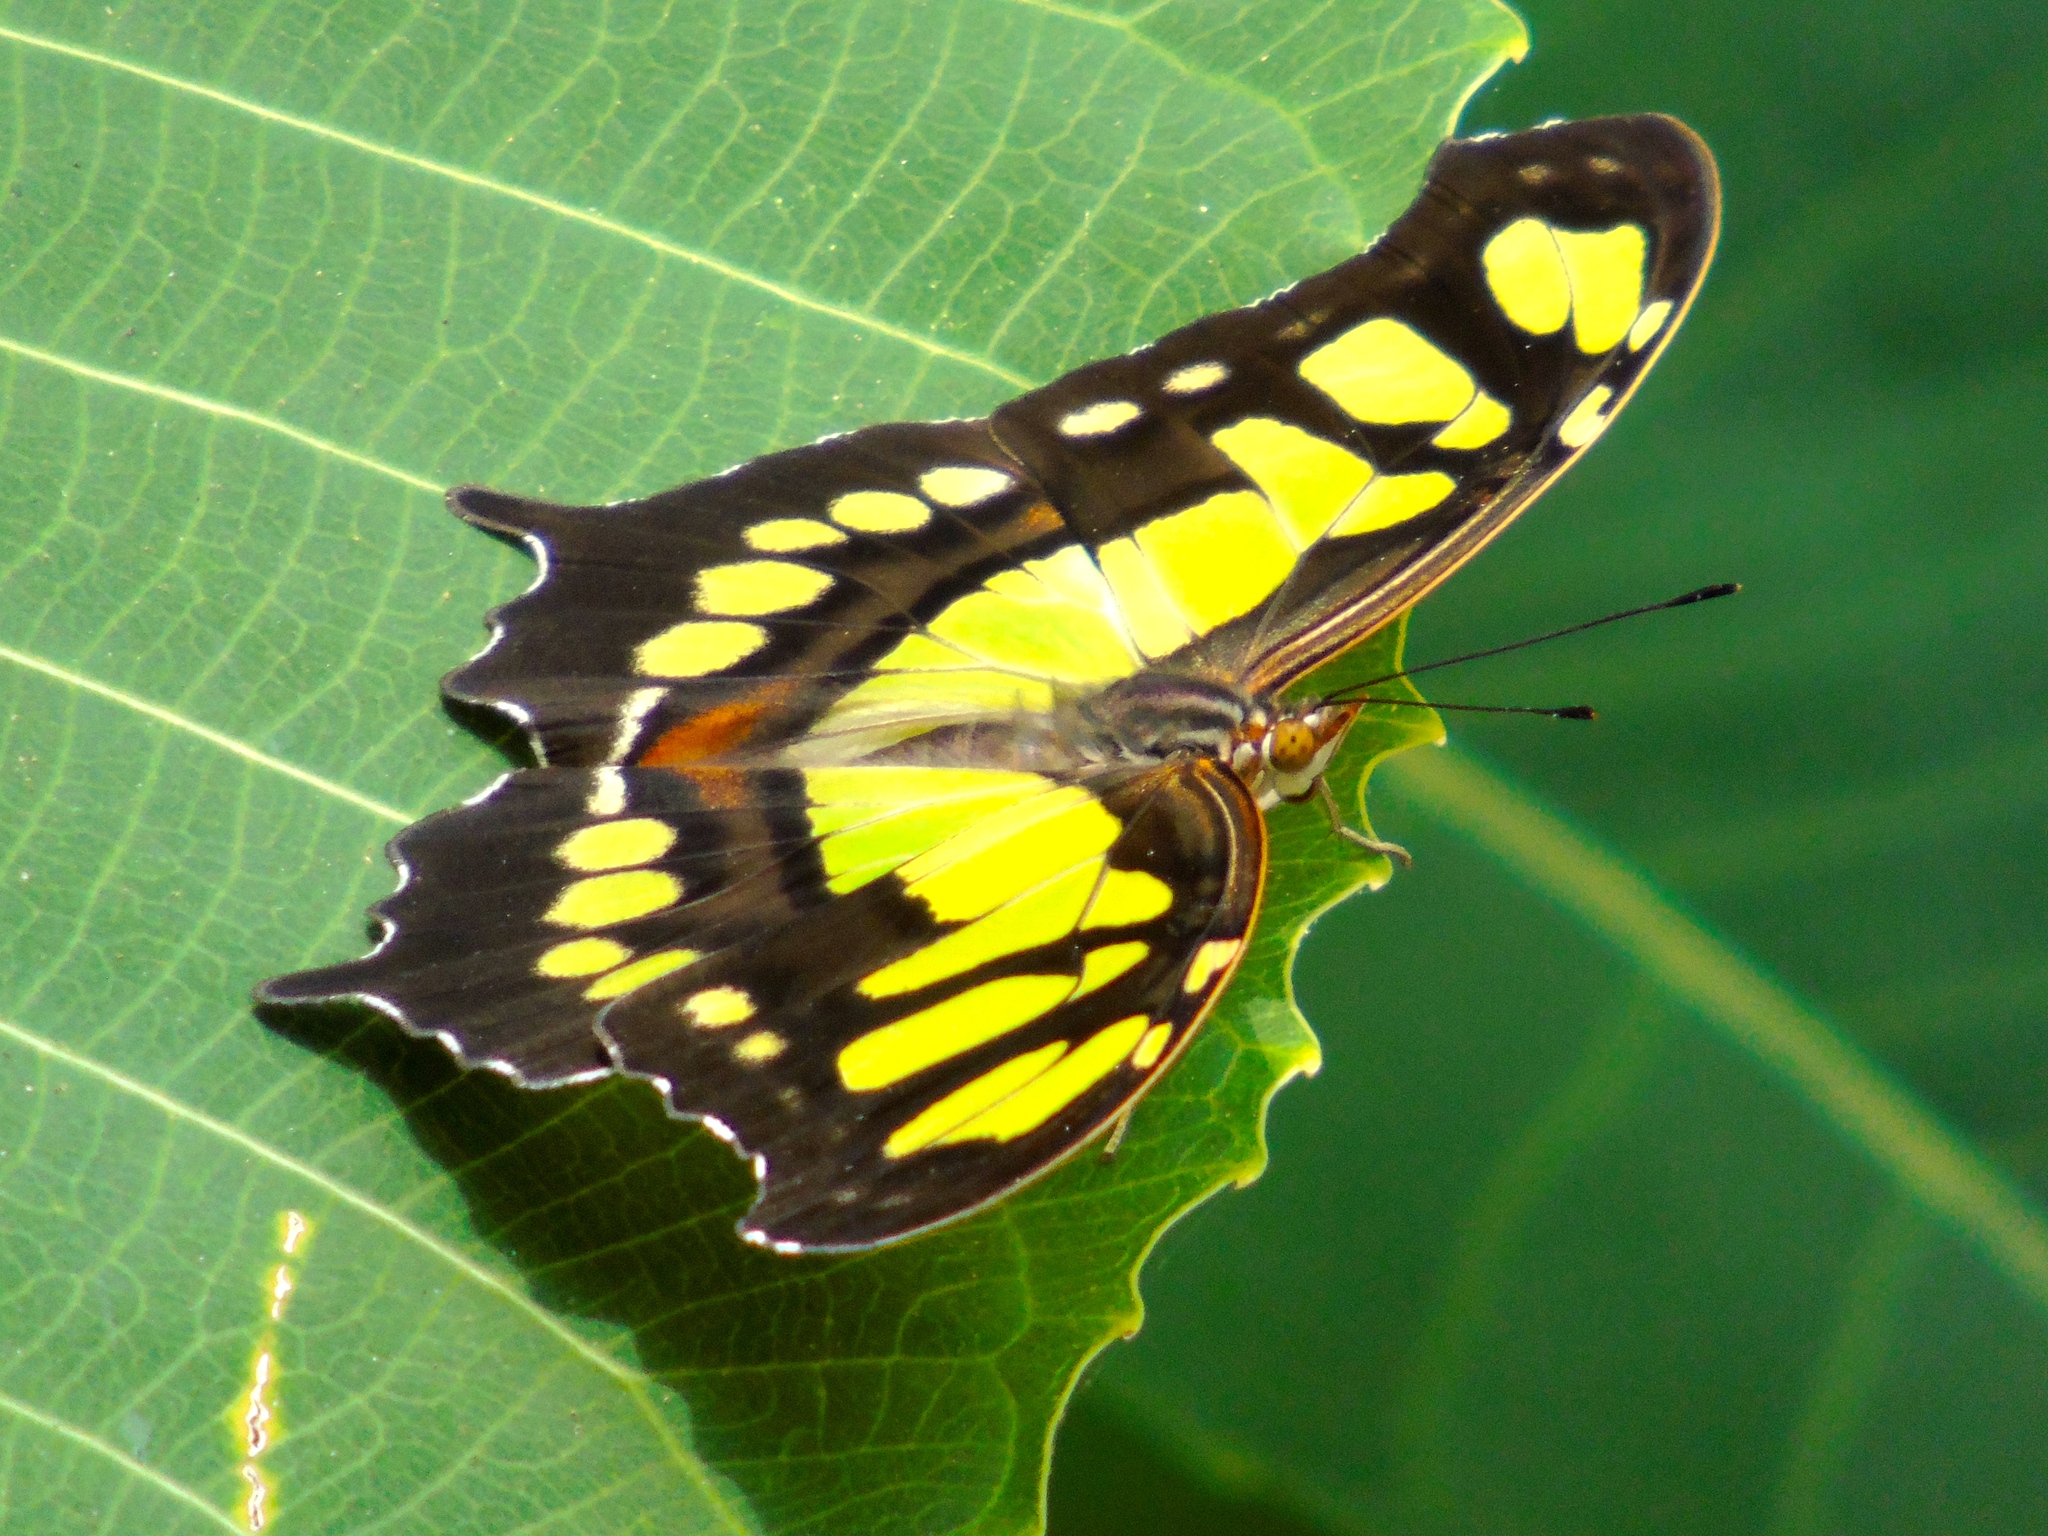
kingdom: Animalia
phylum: Arthropoda
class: Insecta
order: Lepidoptera
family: Nymphalidae
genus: Siproeta
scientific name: Siproeta stelenes
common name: Malachite
